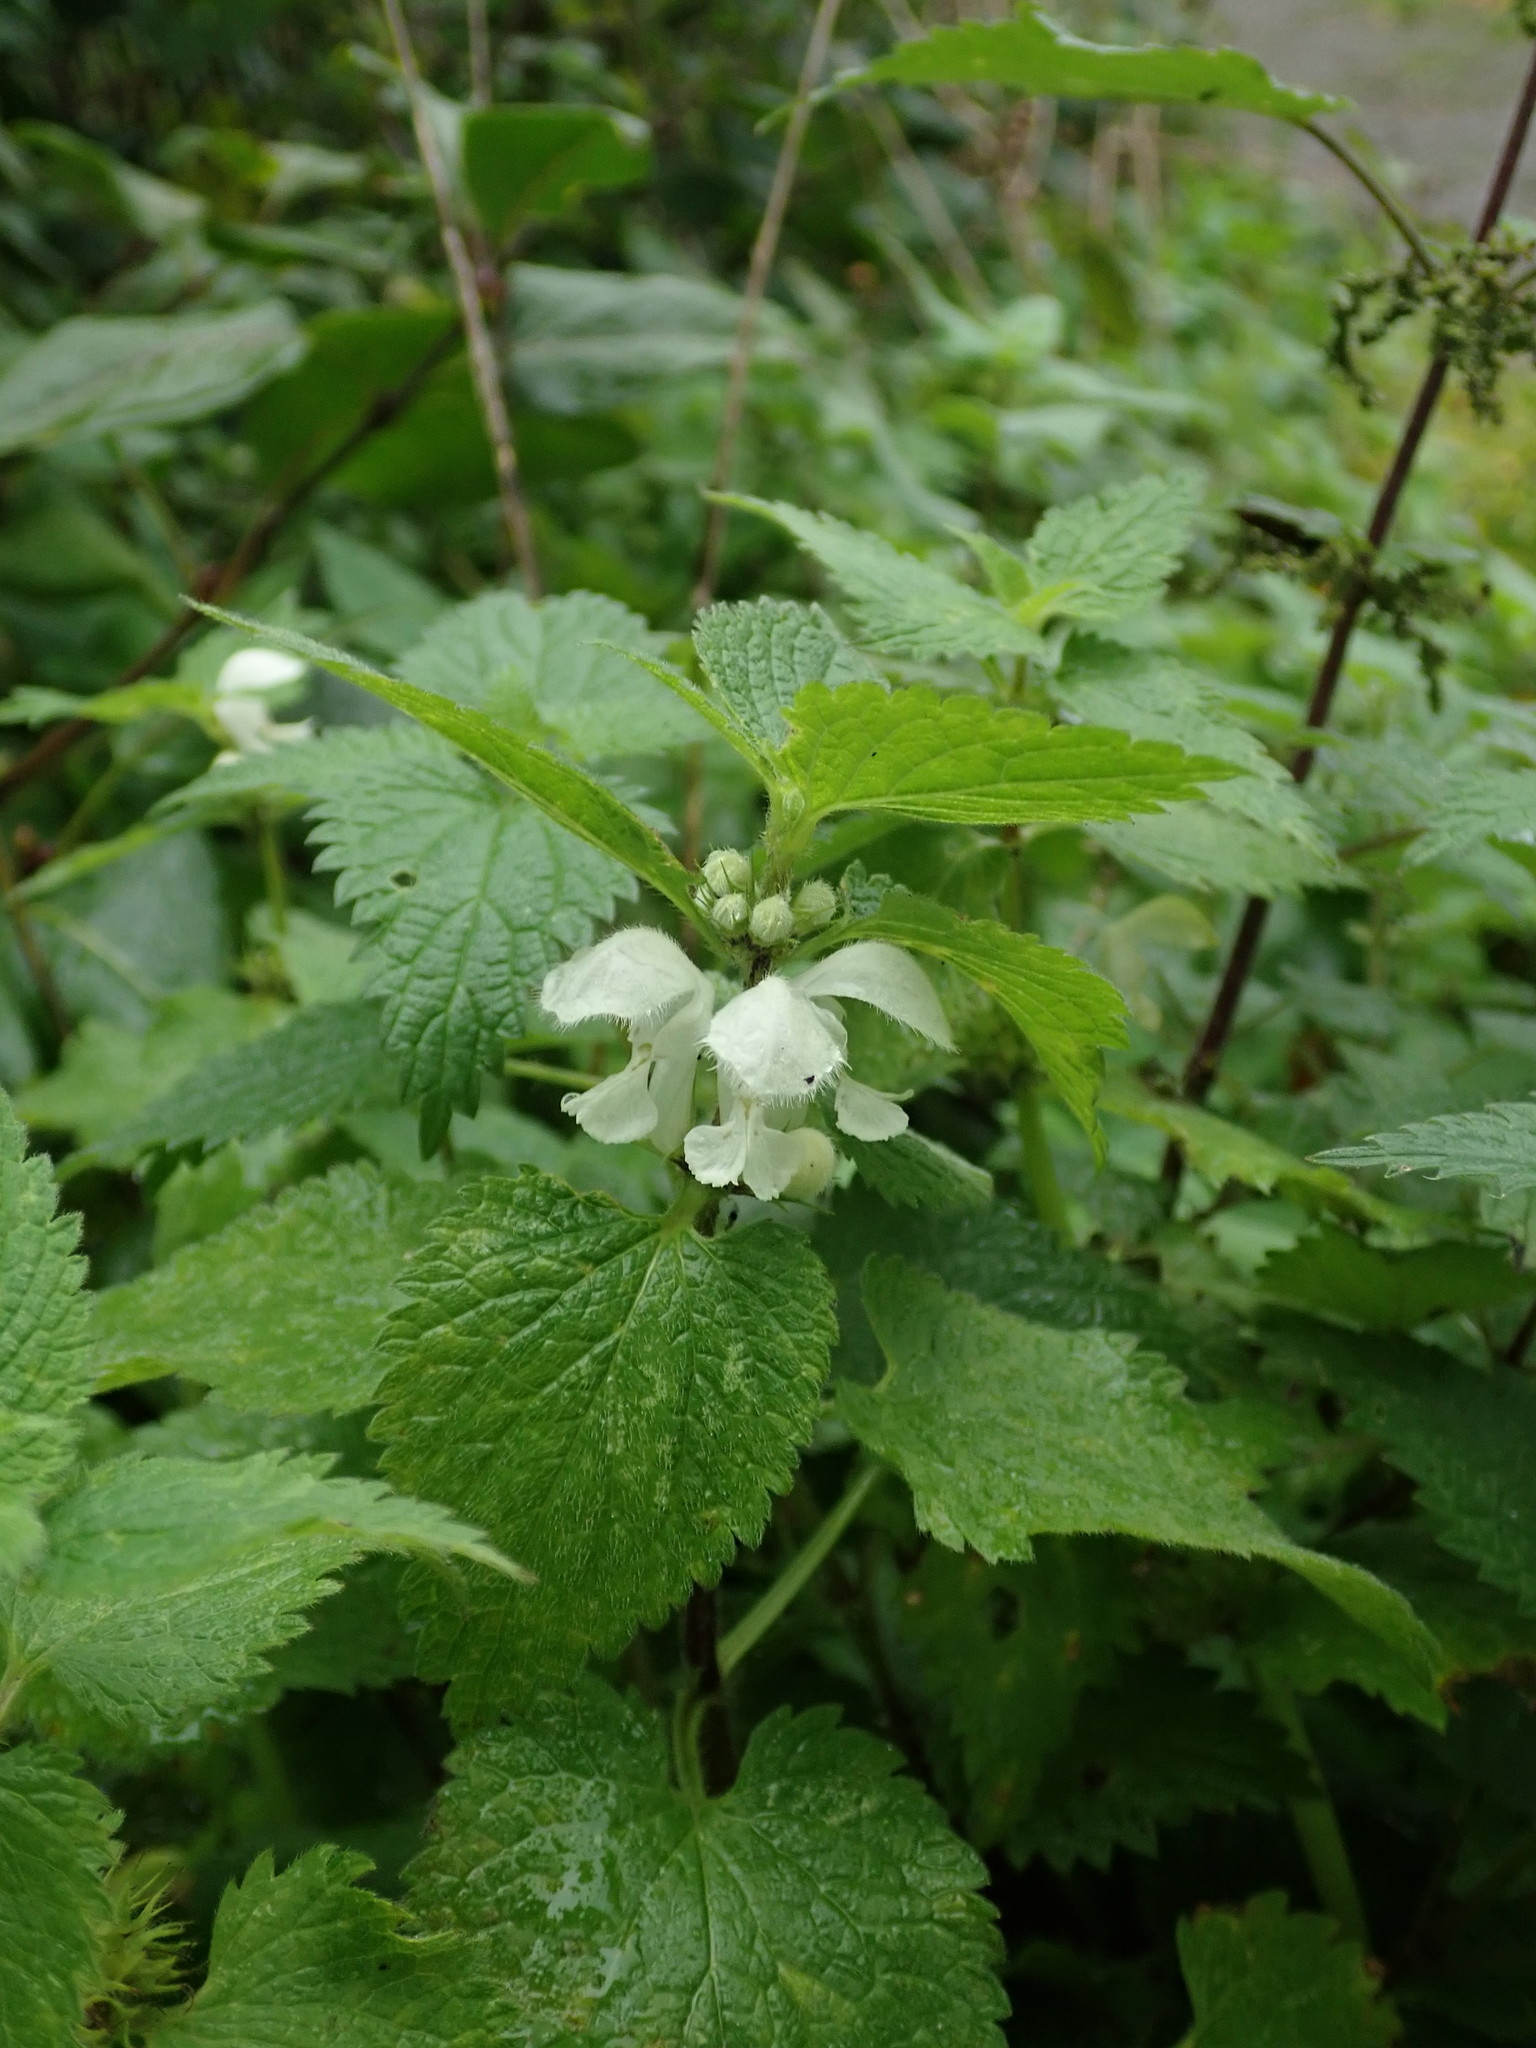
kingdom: Plantae
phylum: Tracheophyta
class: Magnoliopsida
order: Lamiales
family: Lamiaceae
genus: Lamium
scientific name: Lamium album
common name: White dead-nettle
